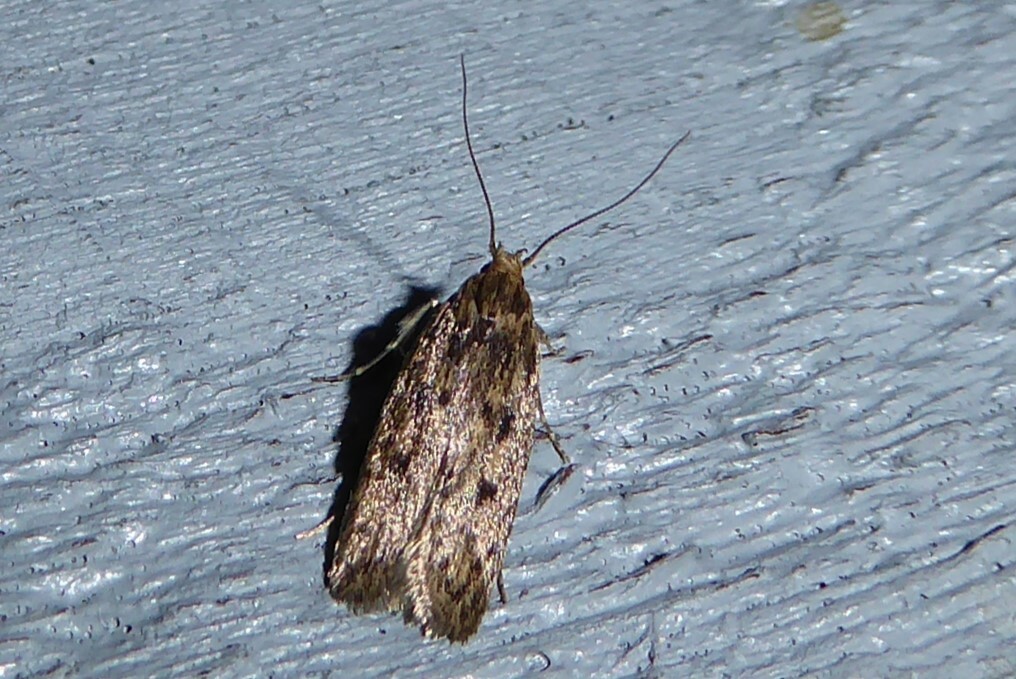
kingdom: Animalia
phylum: Arthropoda
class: Insecta
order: Lepidoptera
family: Oecophoridae
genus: Hofmannophila
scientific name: Hofmannophila pseudospretella
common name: Brown house moth
